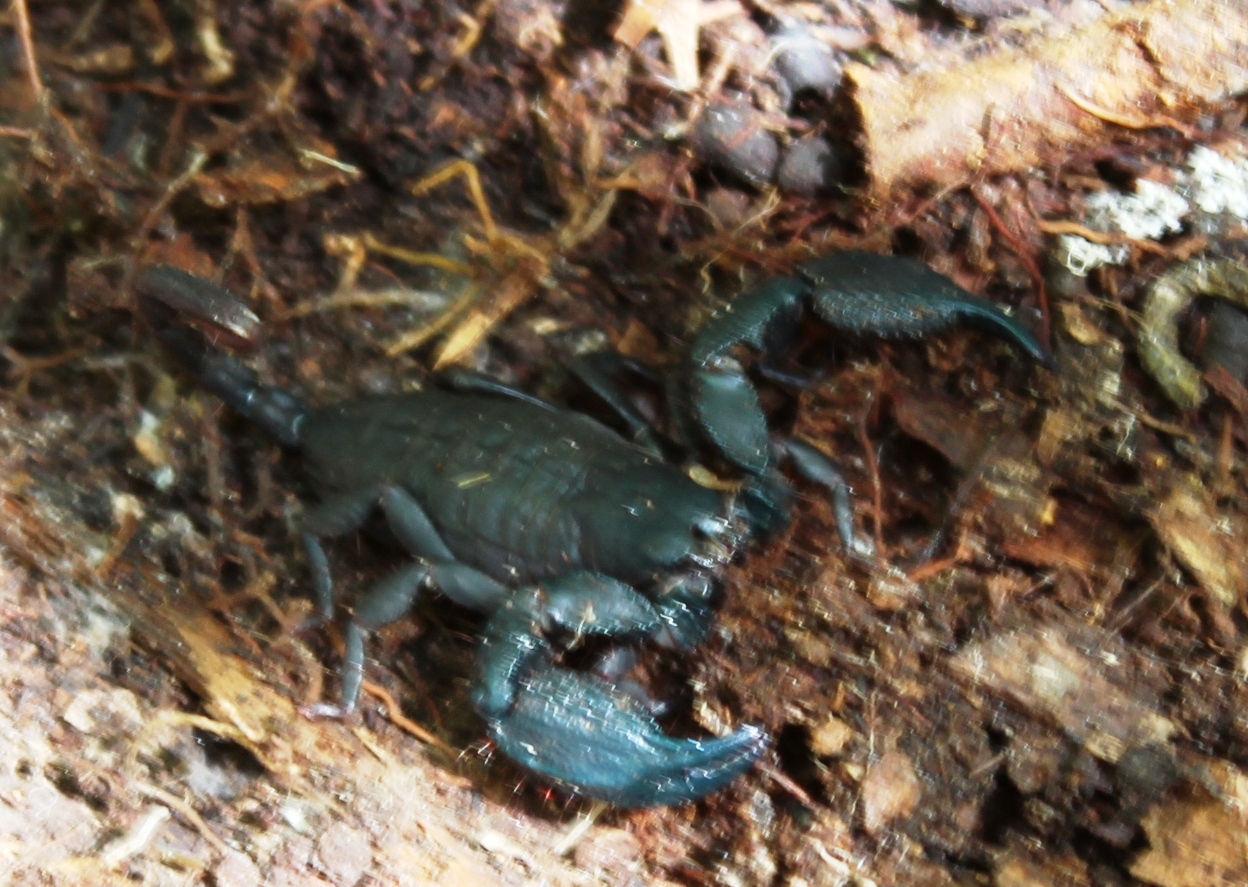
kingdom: Animalia
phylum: Arthropoda
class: Arachnida
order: Scorpiones
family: Hormuridae
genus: Opisthacanthus
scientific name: Opisthacanthus capensis
